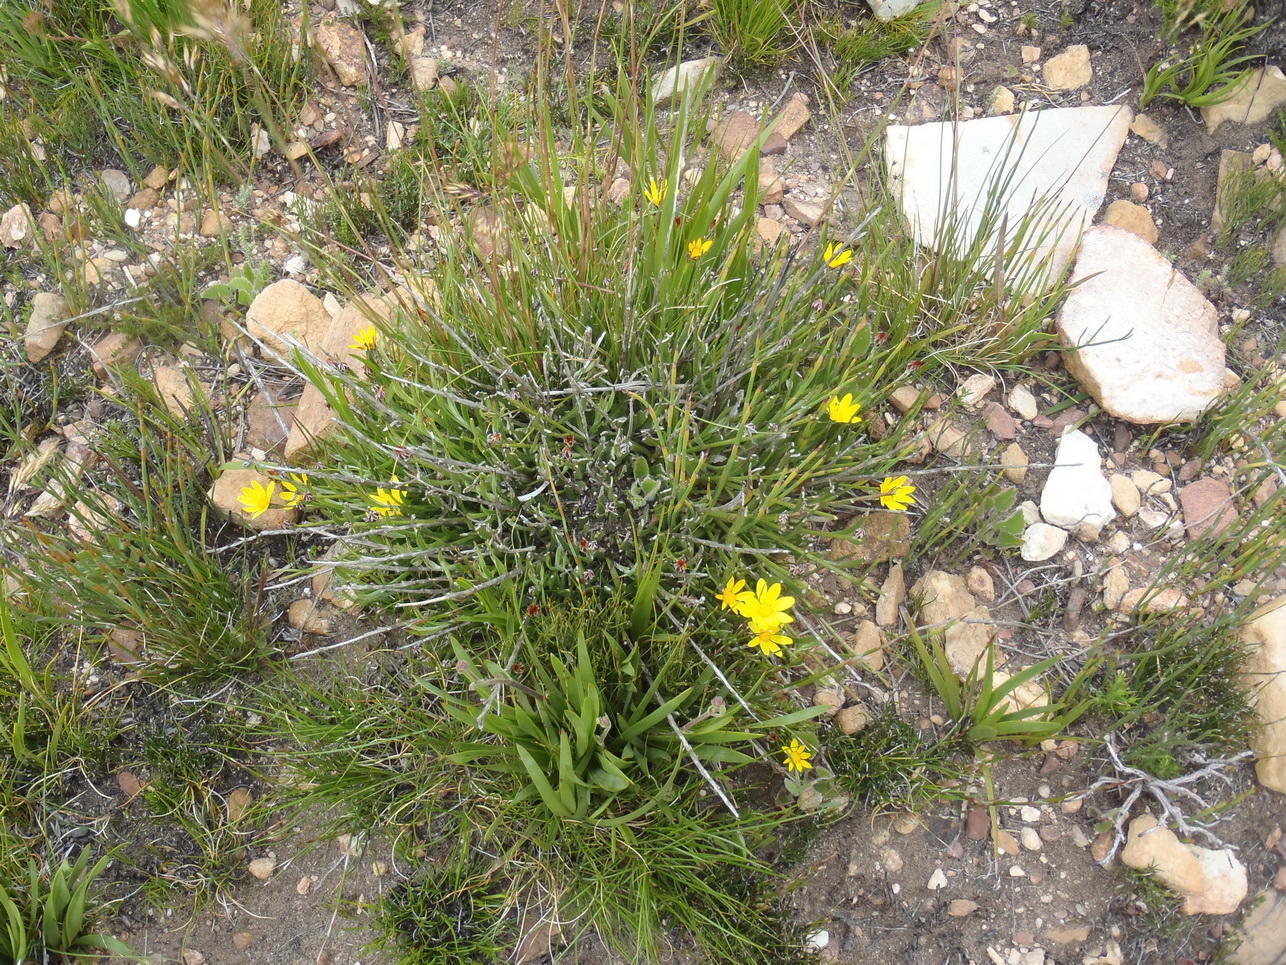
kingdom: Plantae
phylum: Tracheophyta
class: Magnoliopsida
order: Asterales
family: Asteraceae
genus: Osteospermum
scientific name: Osteospermum asperulum
